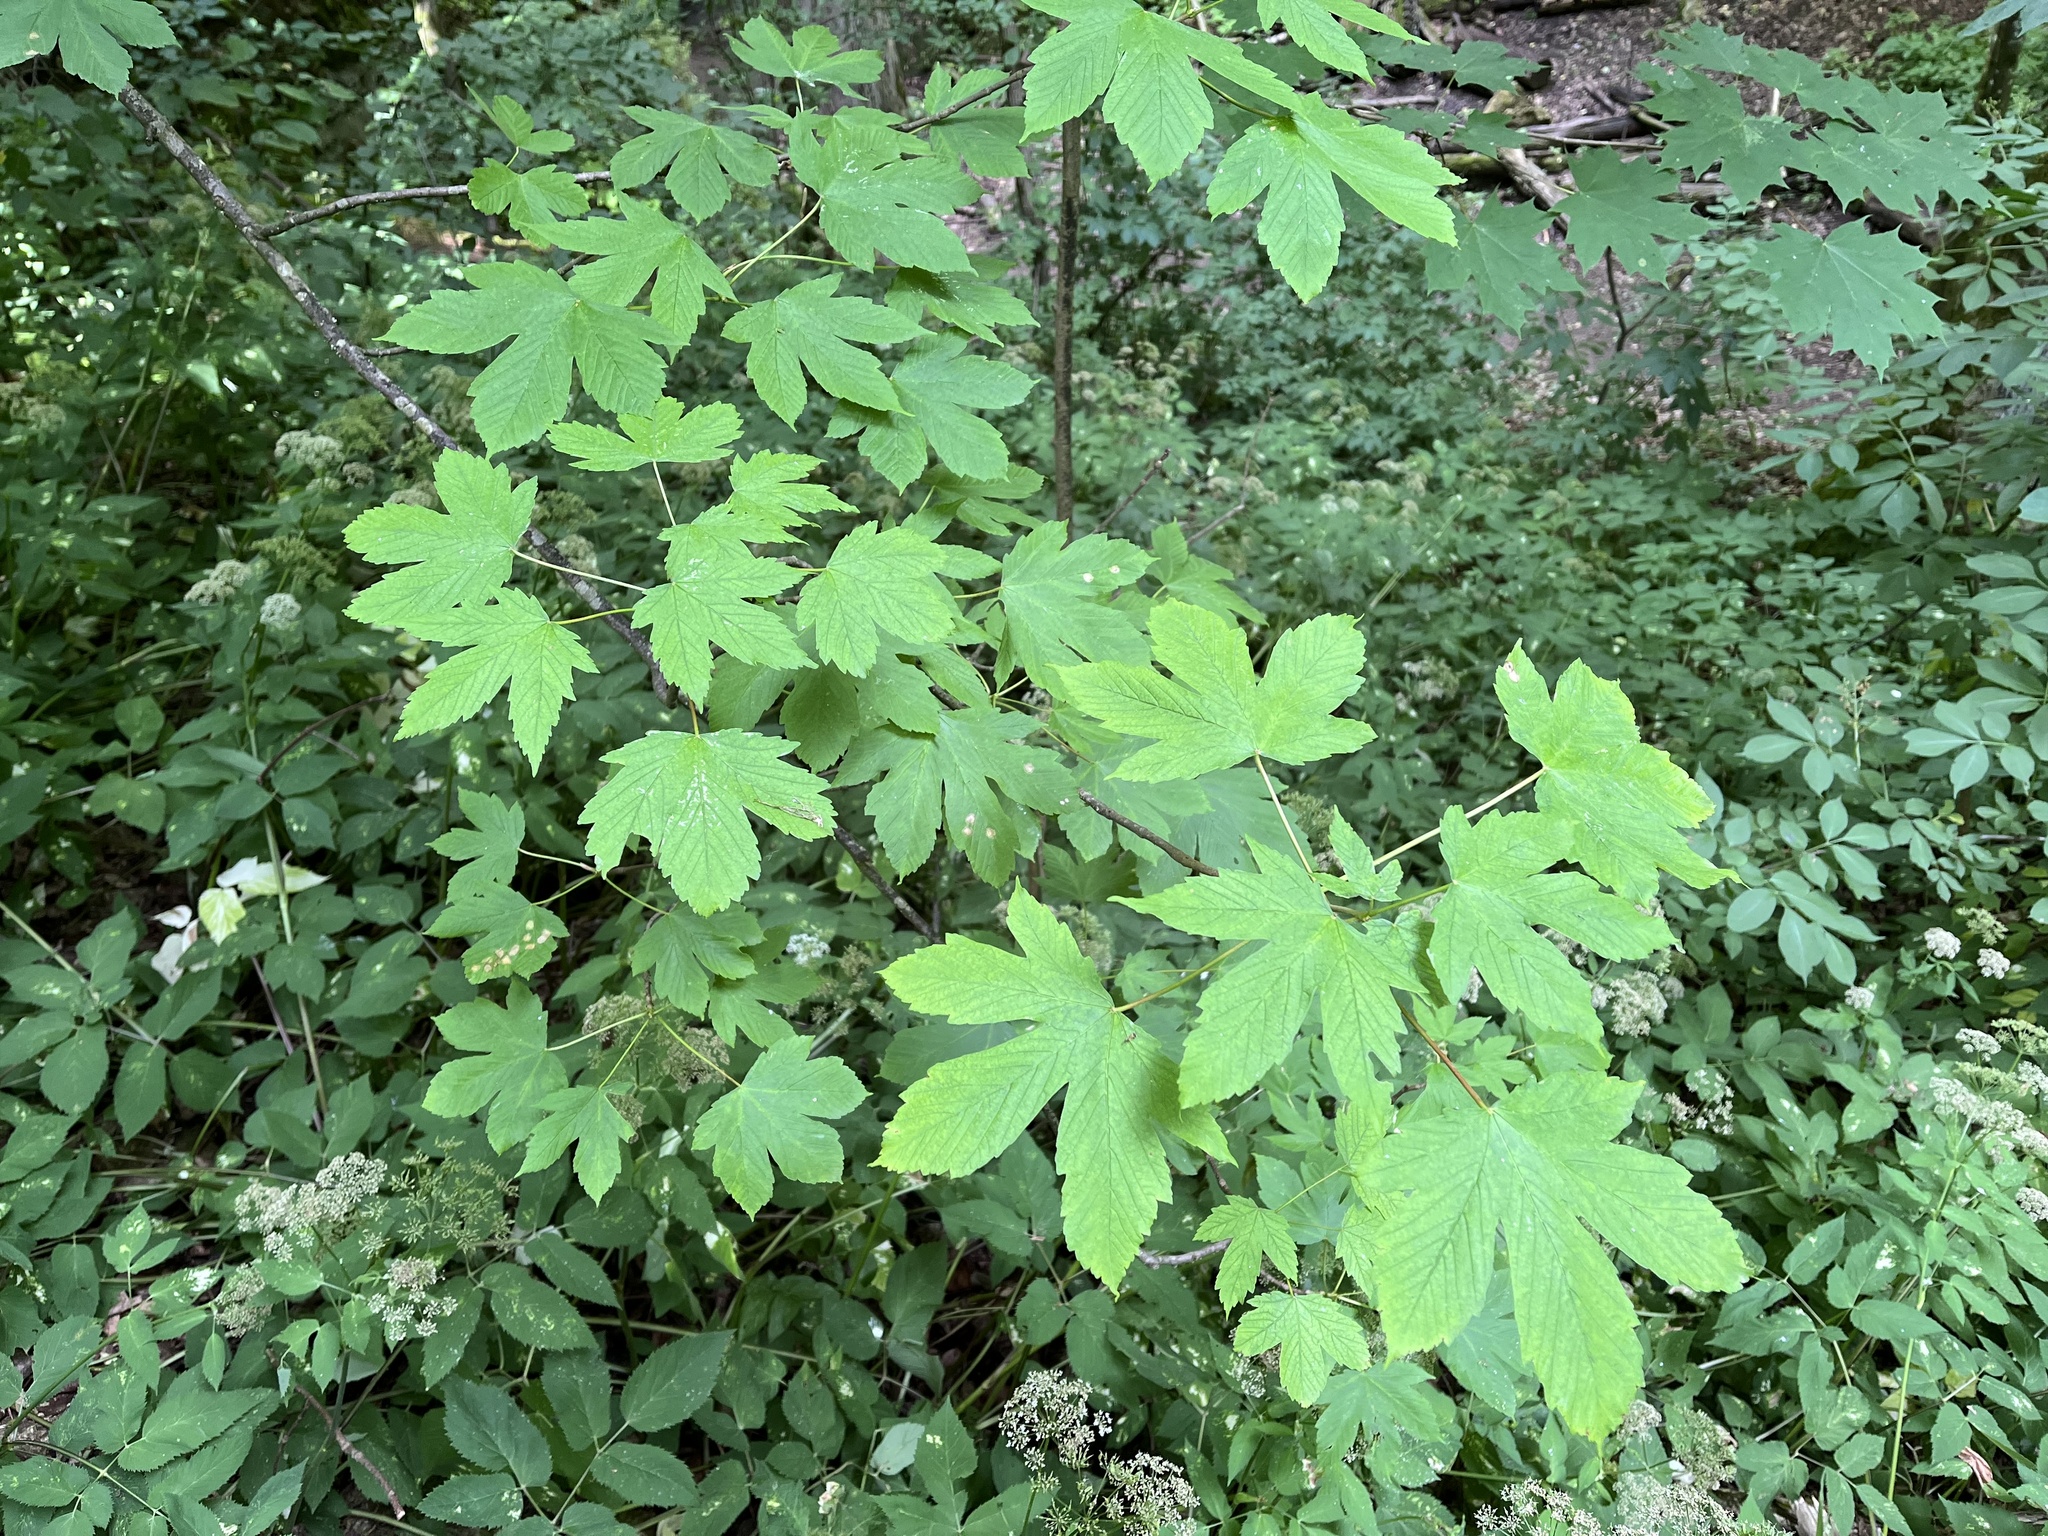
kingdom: Plantae
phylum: Tracheophyta
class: Magnoliopsida
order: Sapindales
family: Sapindaceae
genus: Acer
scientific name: Acer pseudoplatanus
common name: Sycamore
